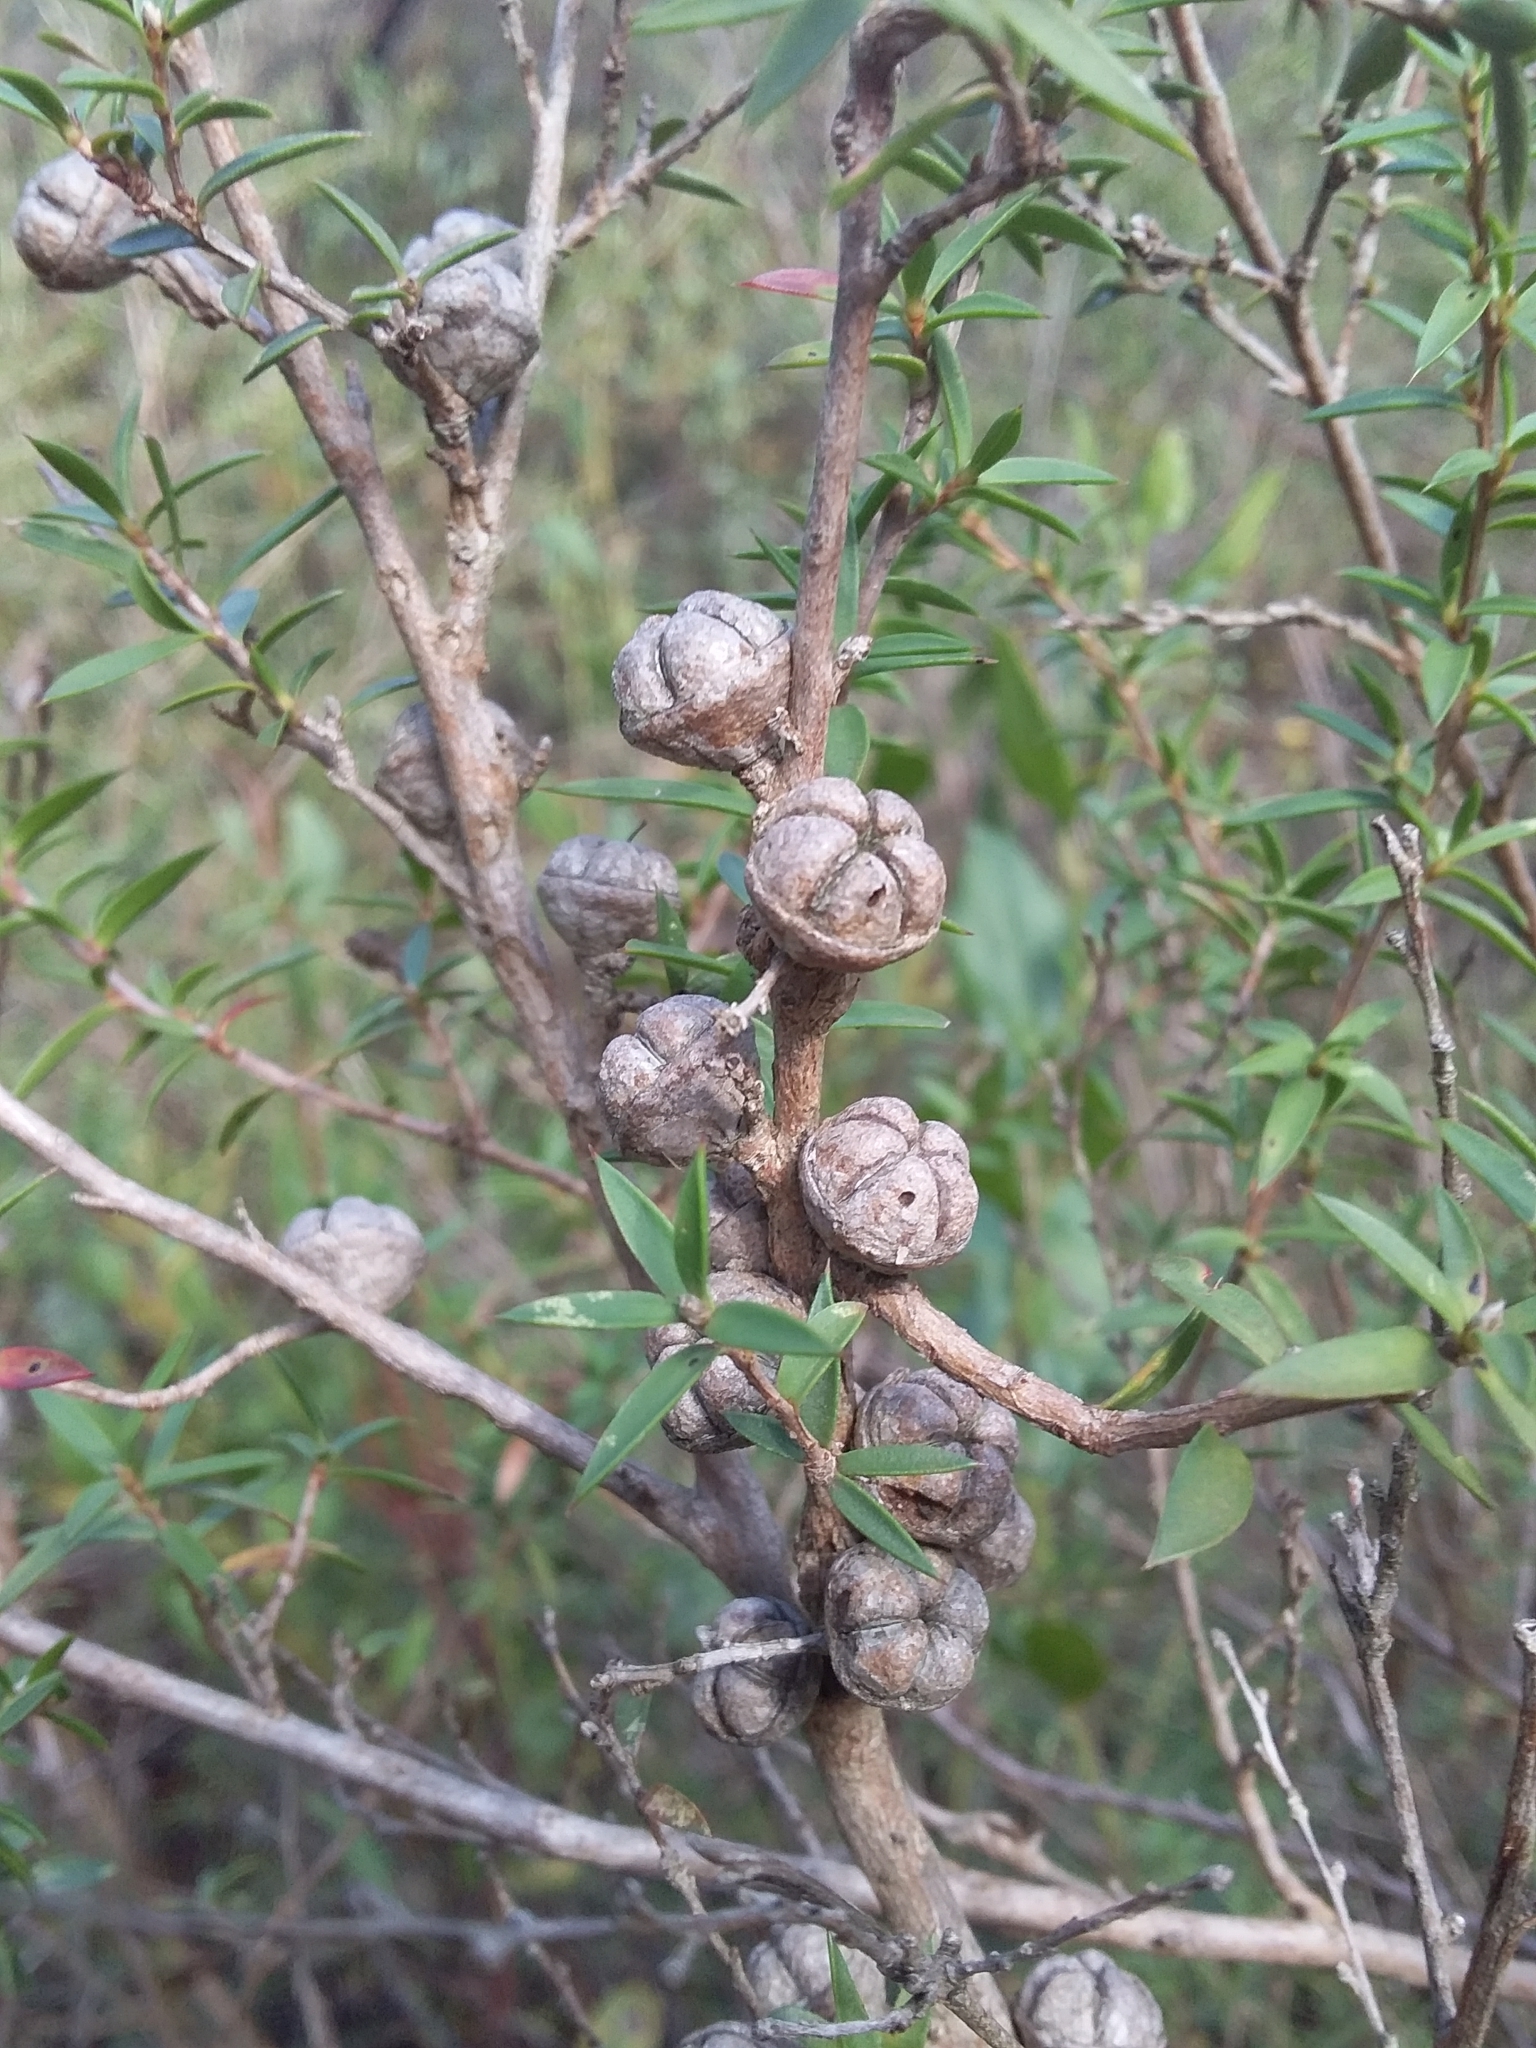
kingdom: Plantae
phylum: Tracheophyta
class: Magnoliopsida
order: Myrtales
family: Myrtaceae
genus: Leptospermum
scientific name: Leptospermum continentale
